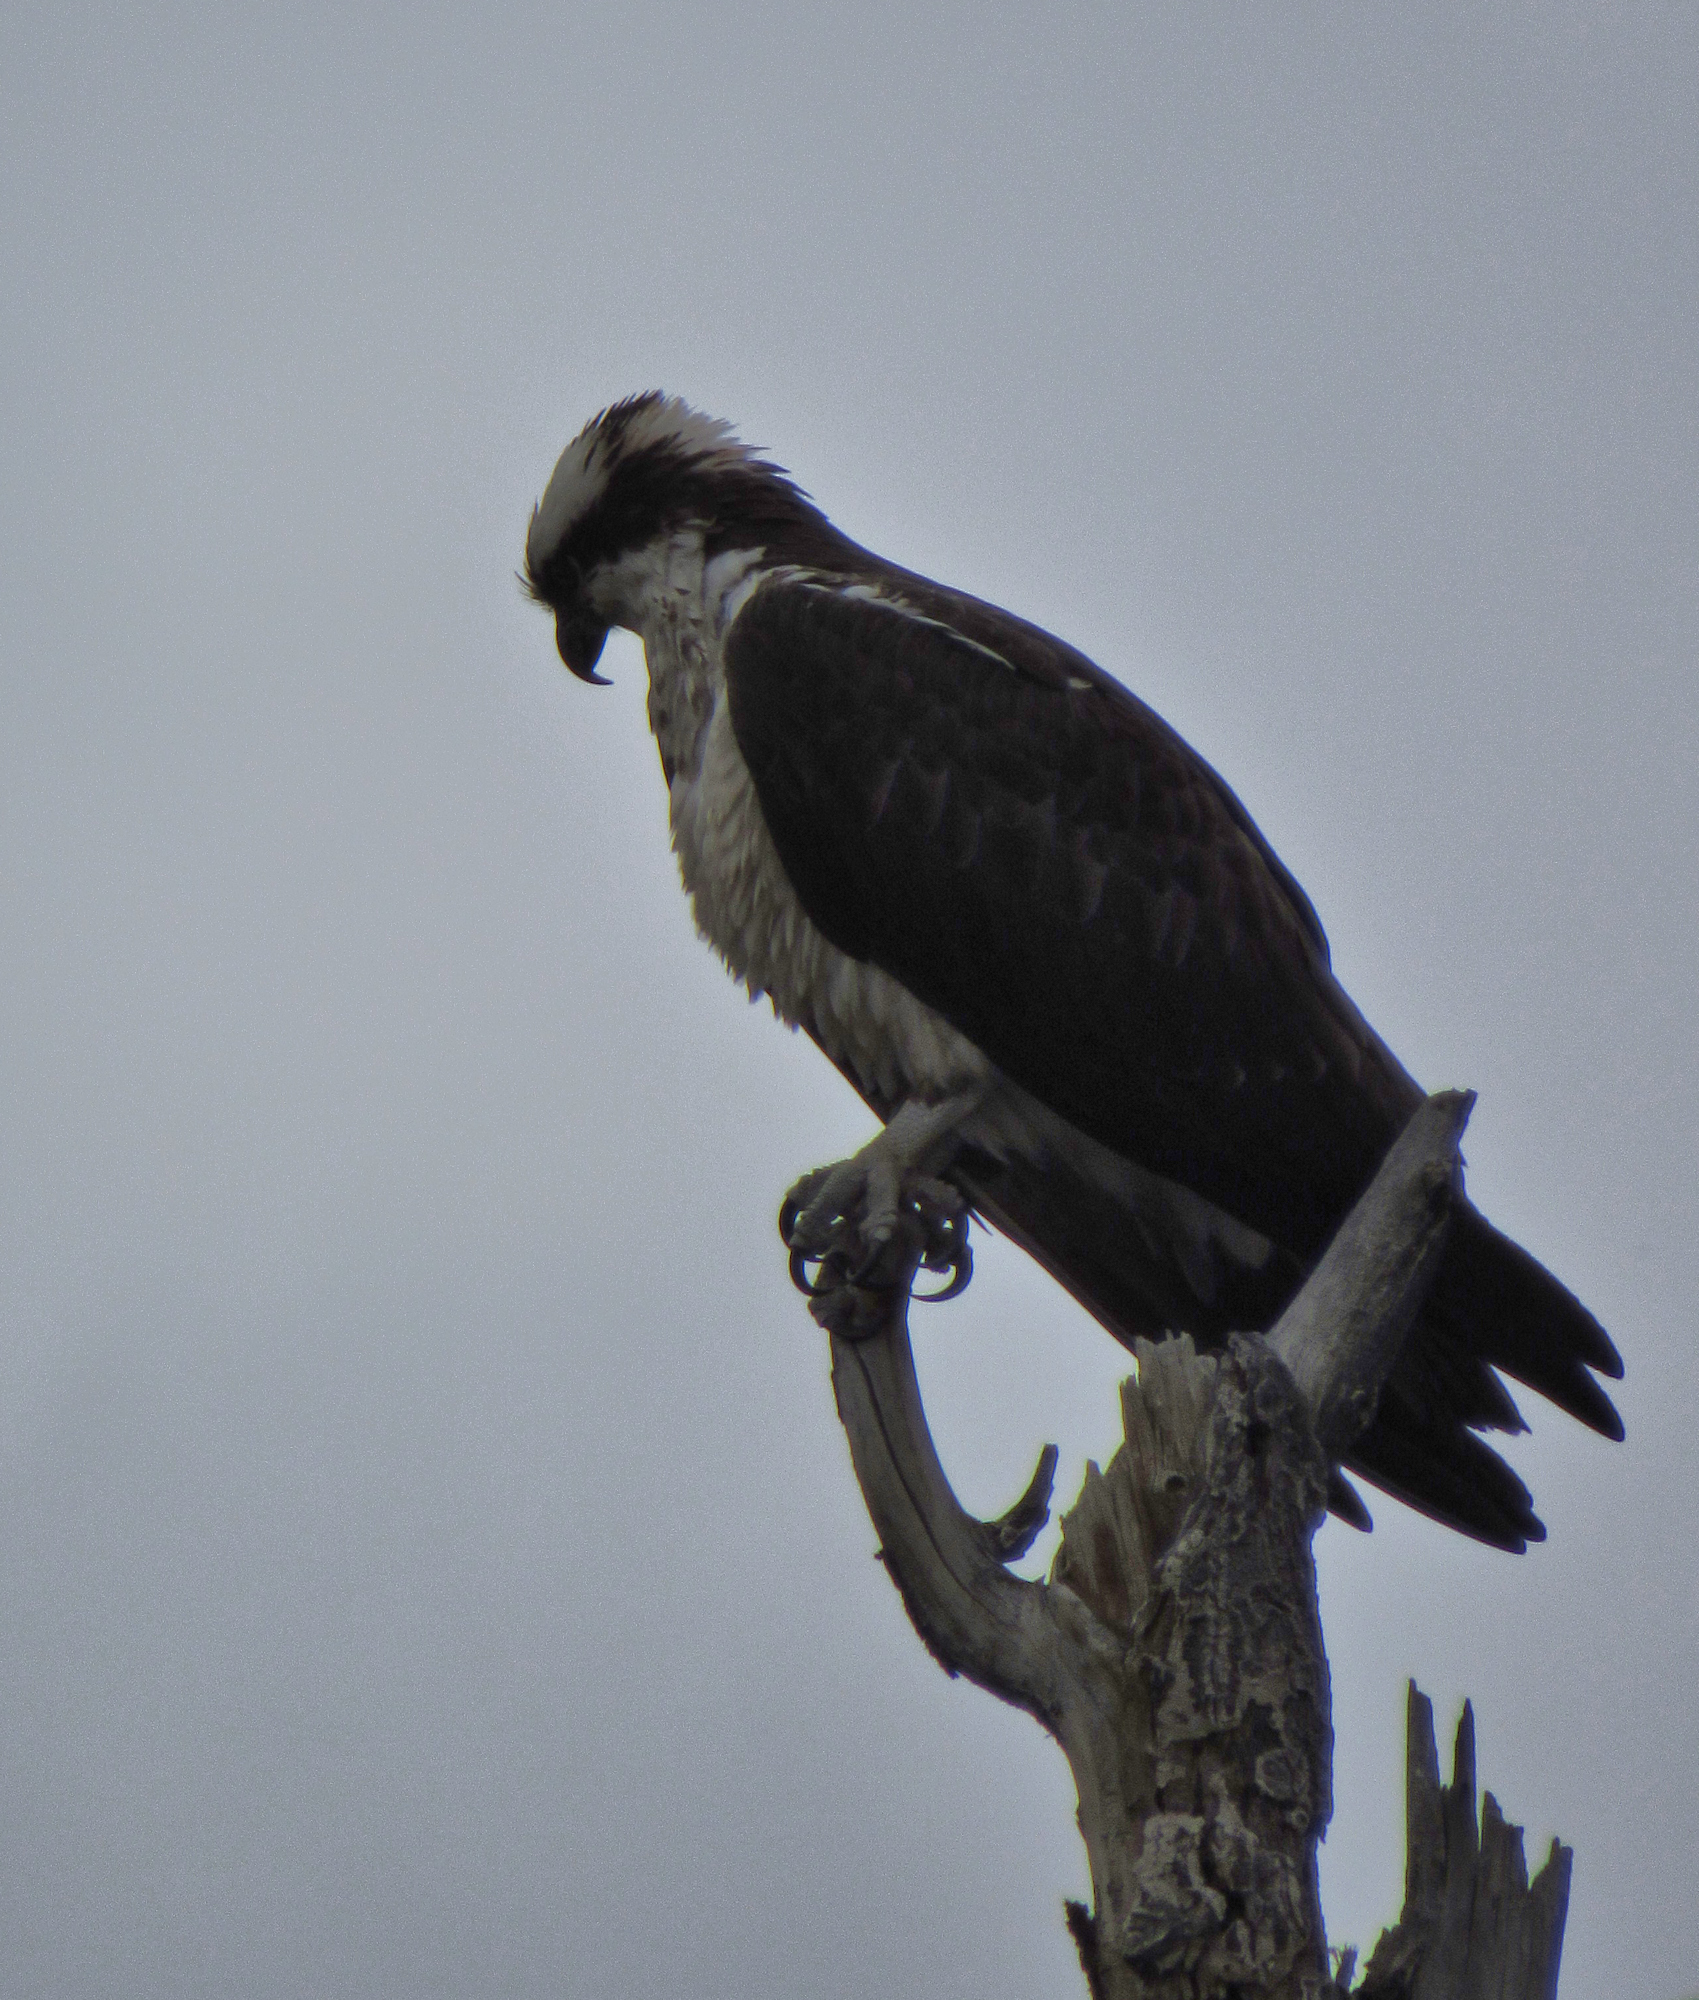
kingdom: Animalia
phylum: Chordata
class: Aves
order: Accipitriformes
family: Pandionidae
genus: Pandion
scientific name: Pandion haliaetus
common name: Osprey
